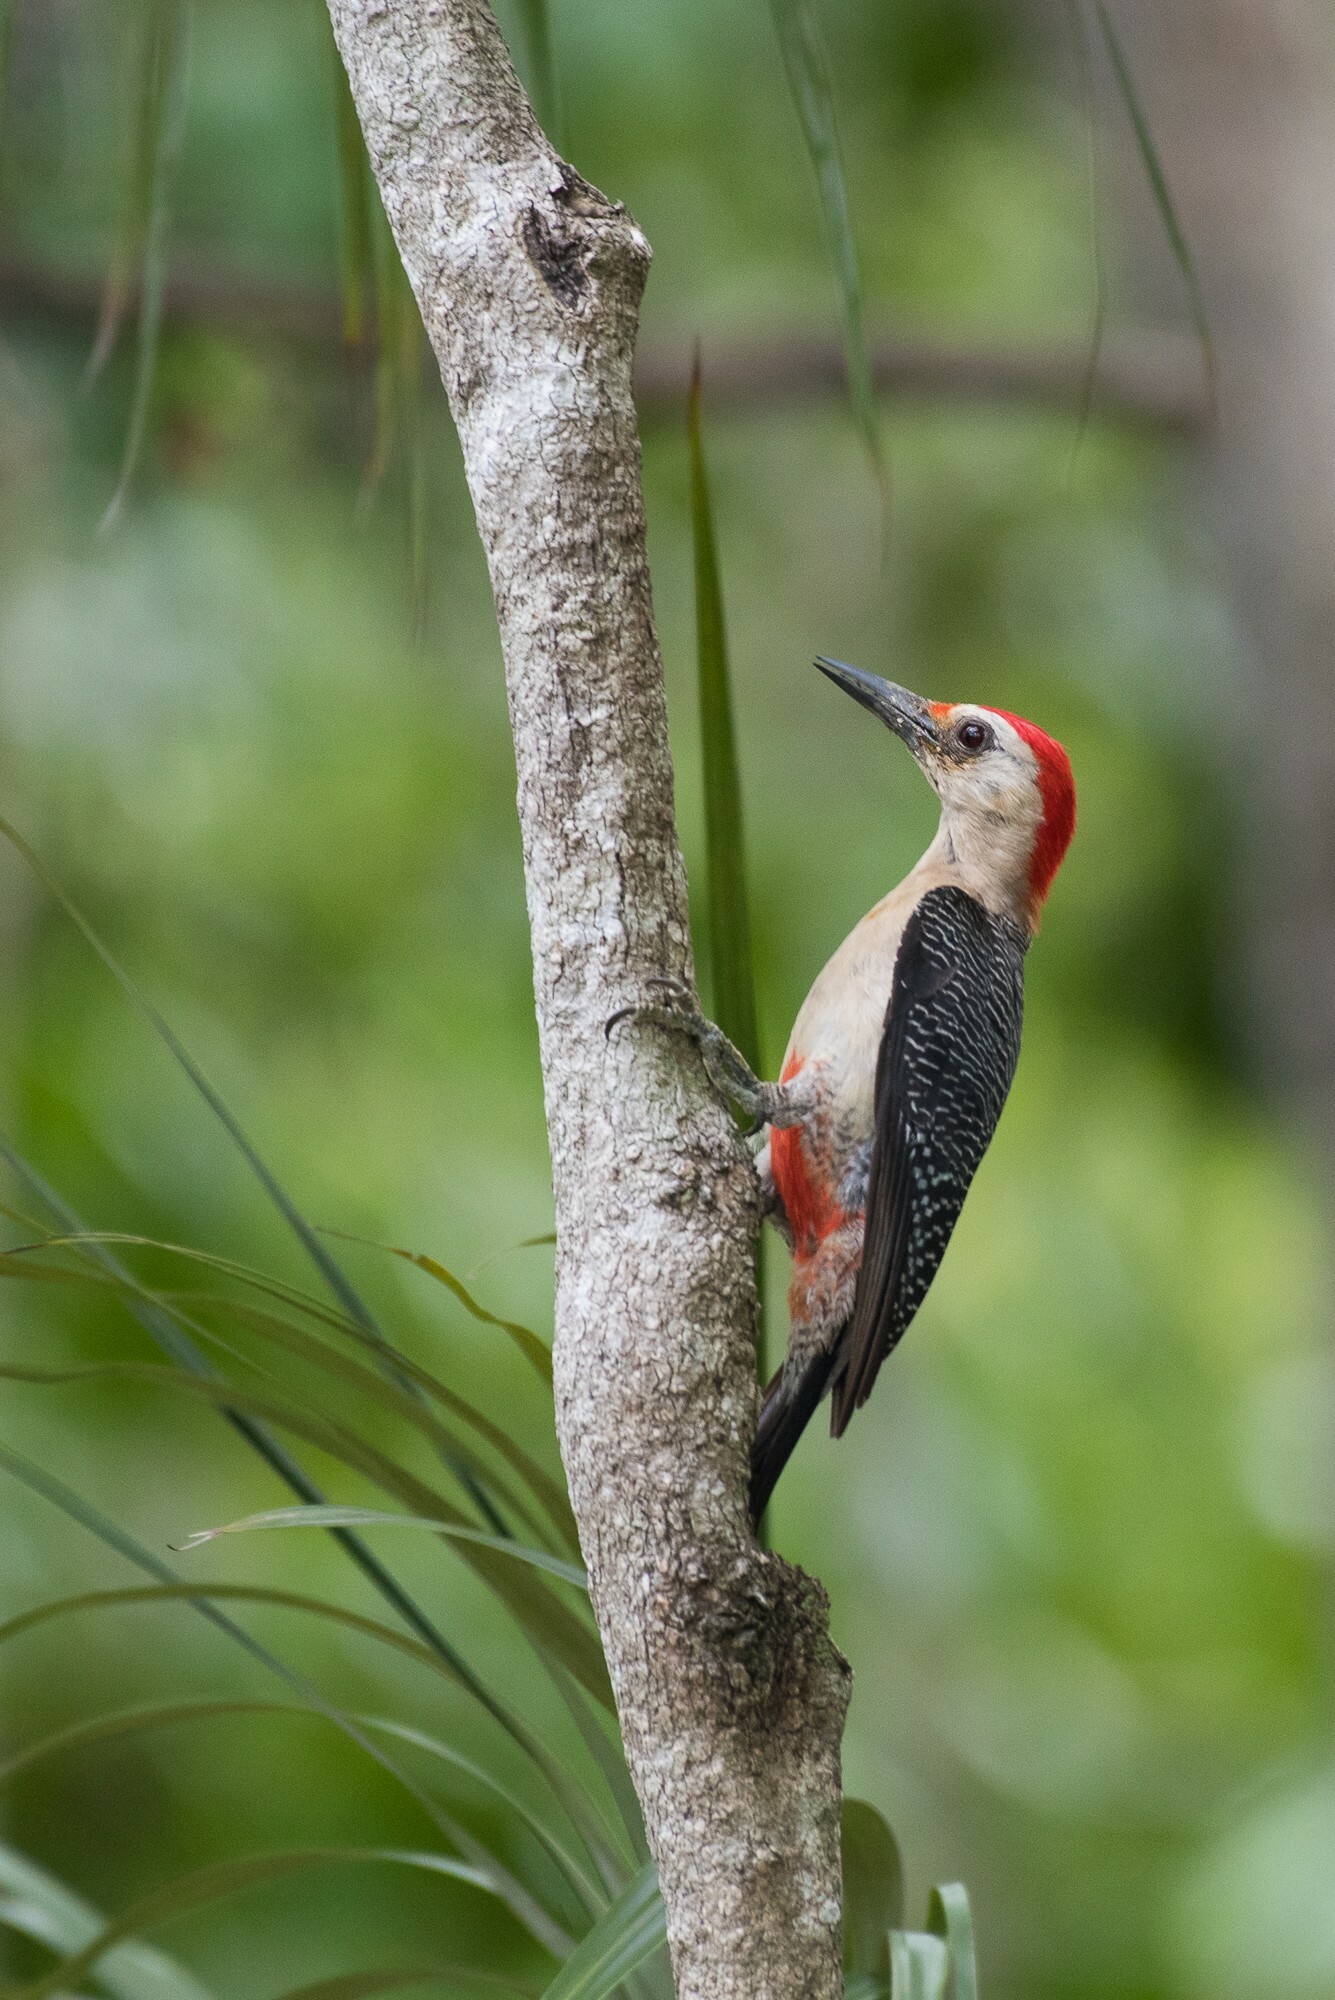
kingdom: Animalia
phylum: Chordata
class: Aves
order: Piciformes
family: Picidae
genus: Melanerpes
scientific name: Melanerpes aurifrons
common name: Golden-fronted woodpecker
